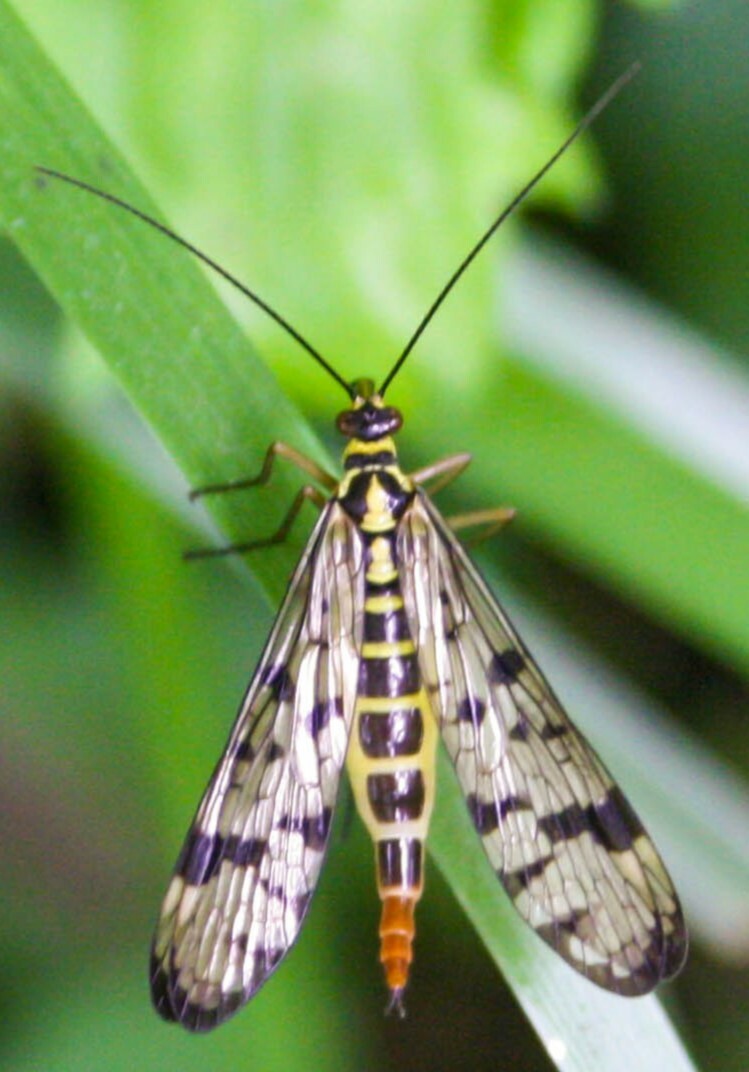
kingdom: Animalia
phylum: Arthropoda
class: Insecta
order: Mecoptera
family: Panorpidae
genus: Panorpa
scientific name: Panorpa
